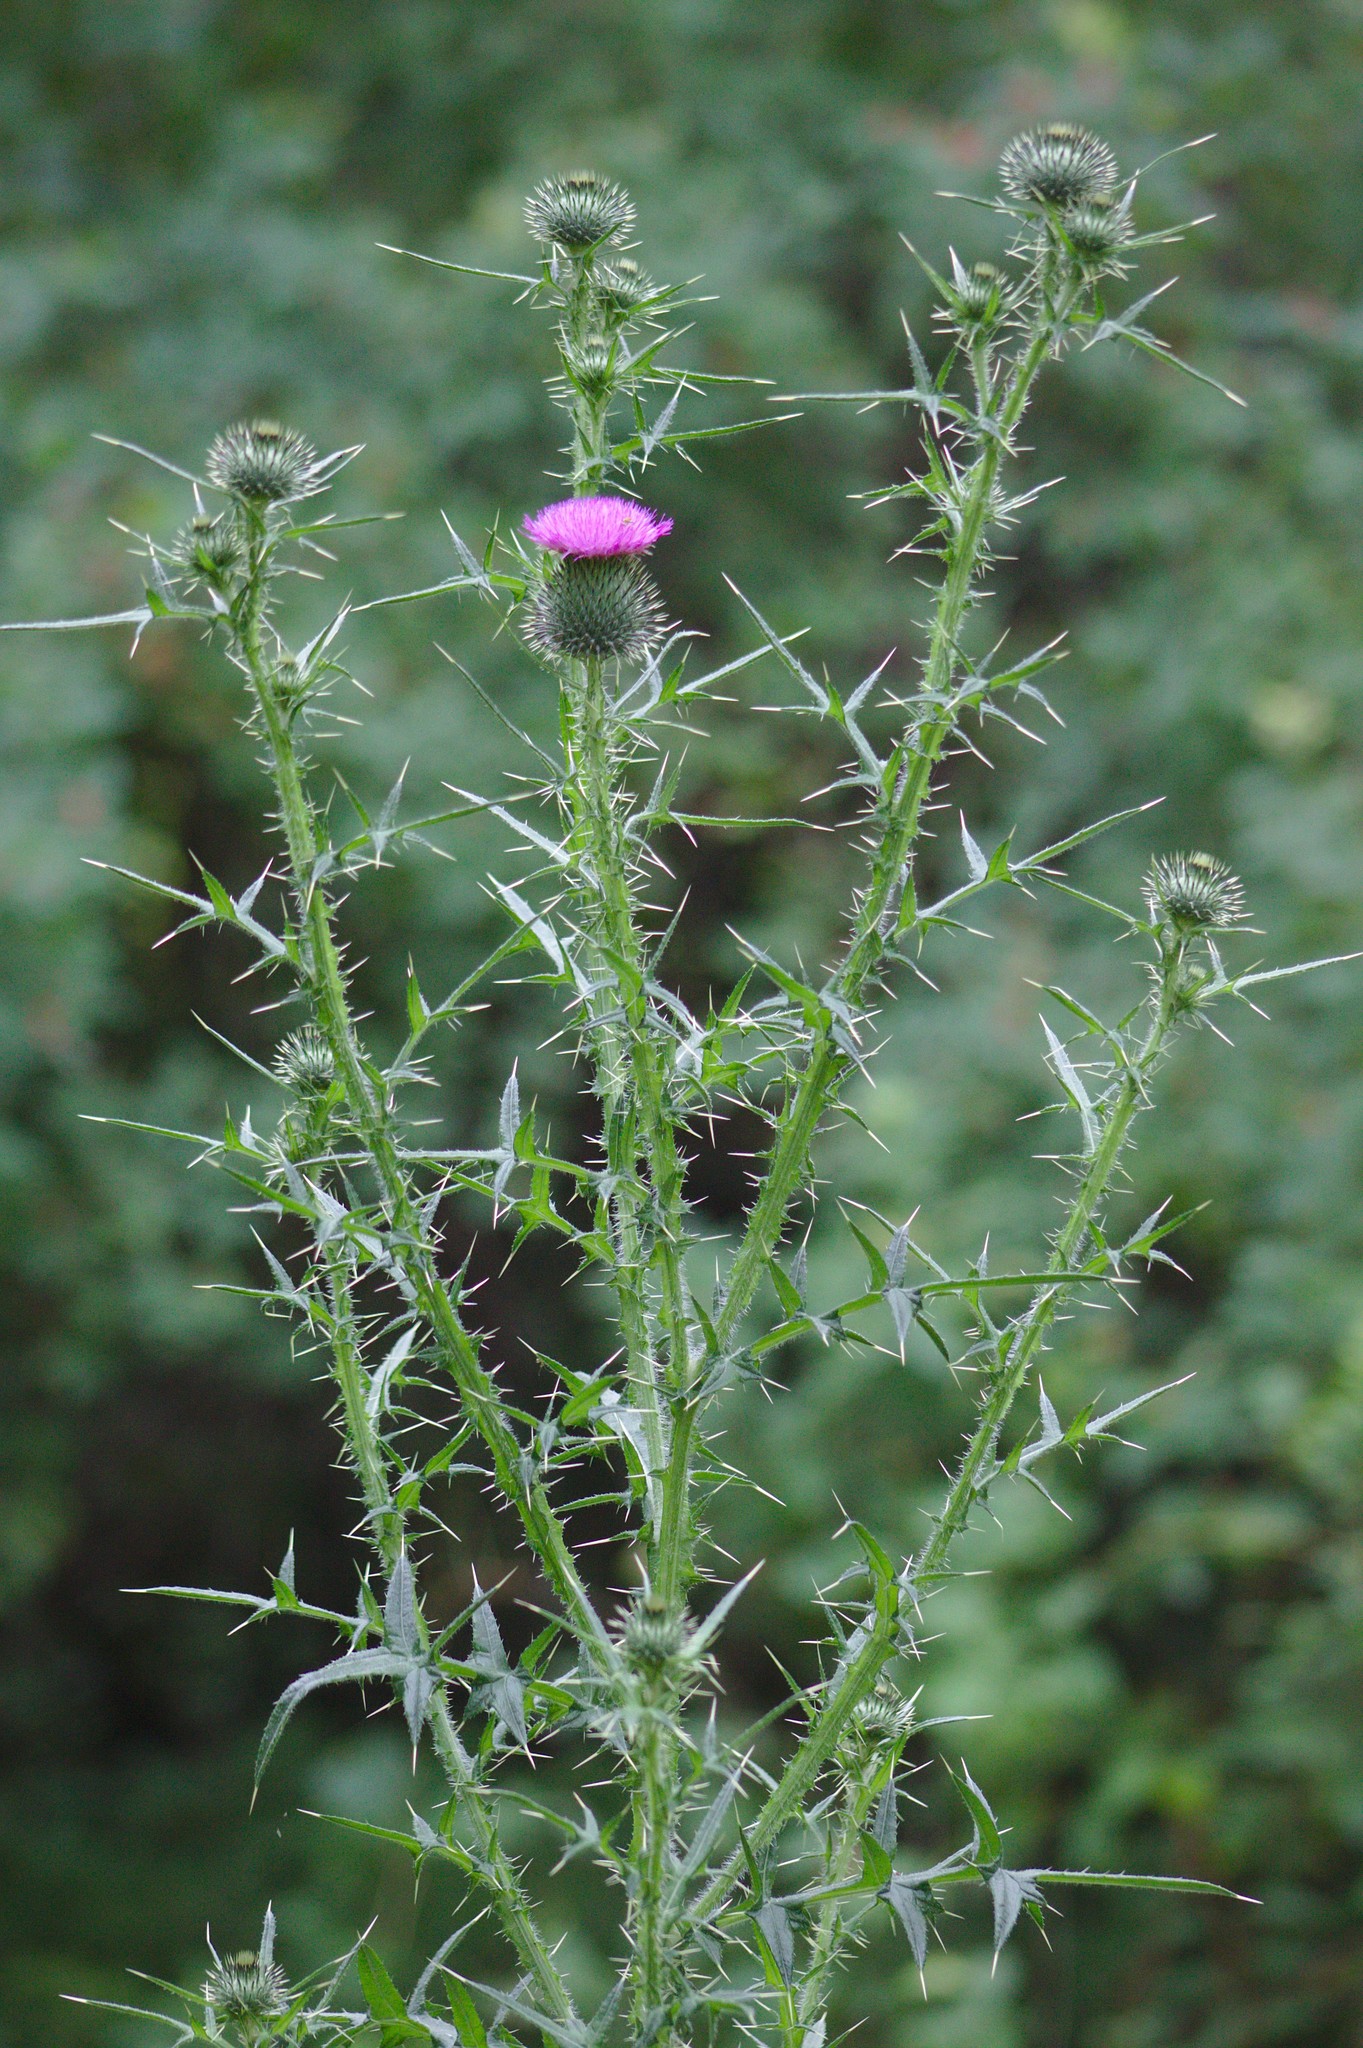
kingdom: Plantae
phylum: Tracheophyta
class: Magnoliopsida
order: Asterales
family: Asteraceae
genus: Cirsium
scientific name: Cirsium vulgare
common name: Bull thistle
